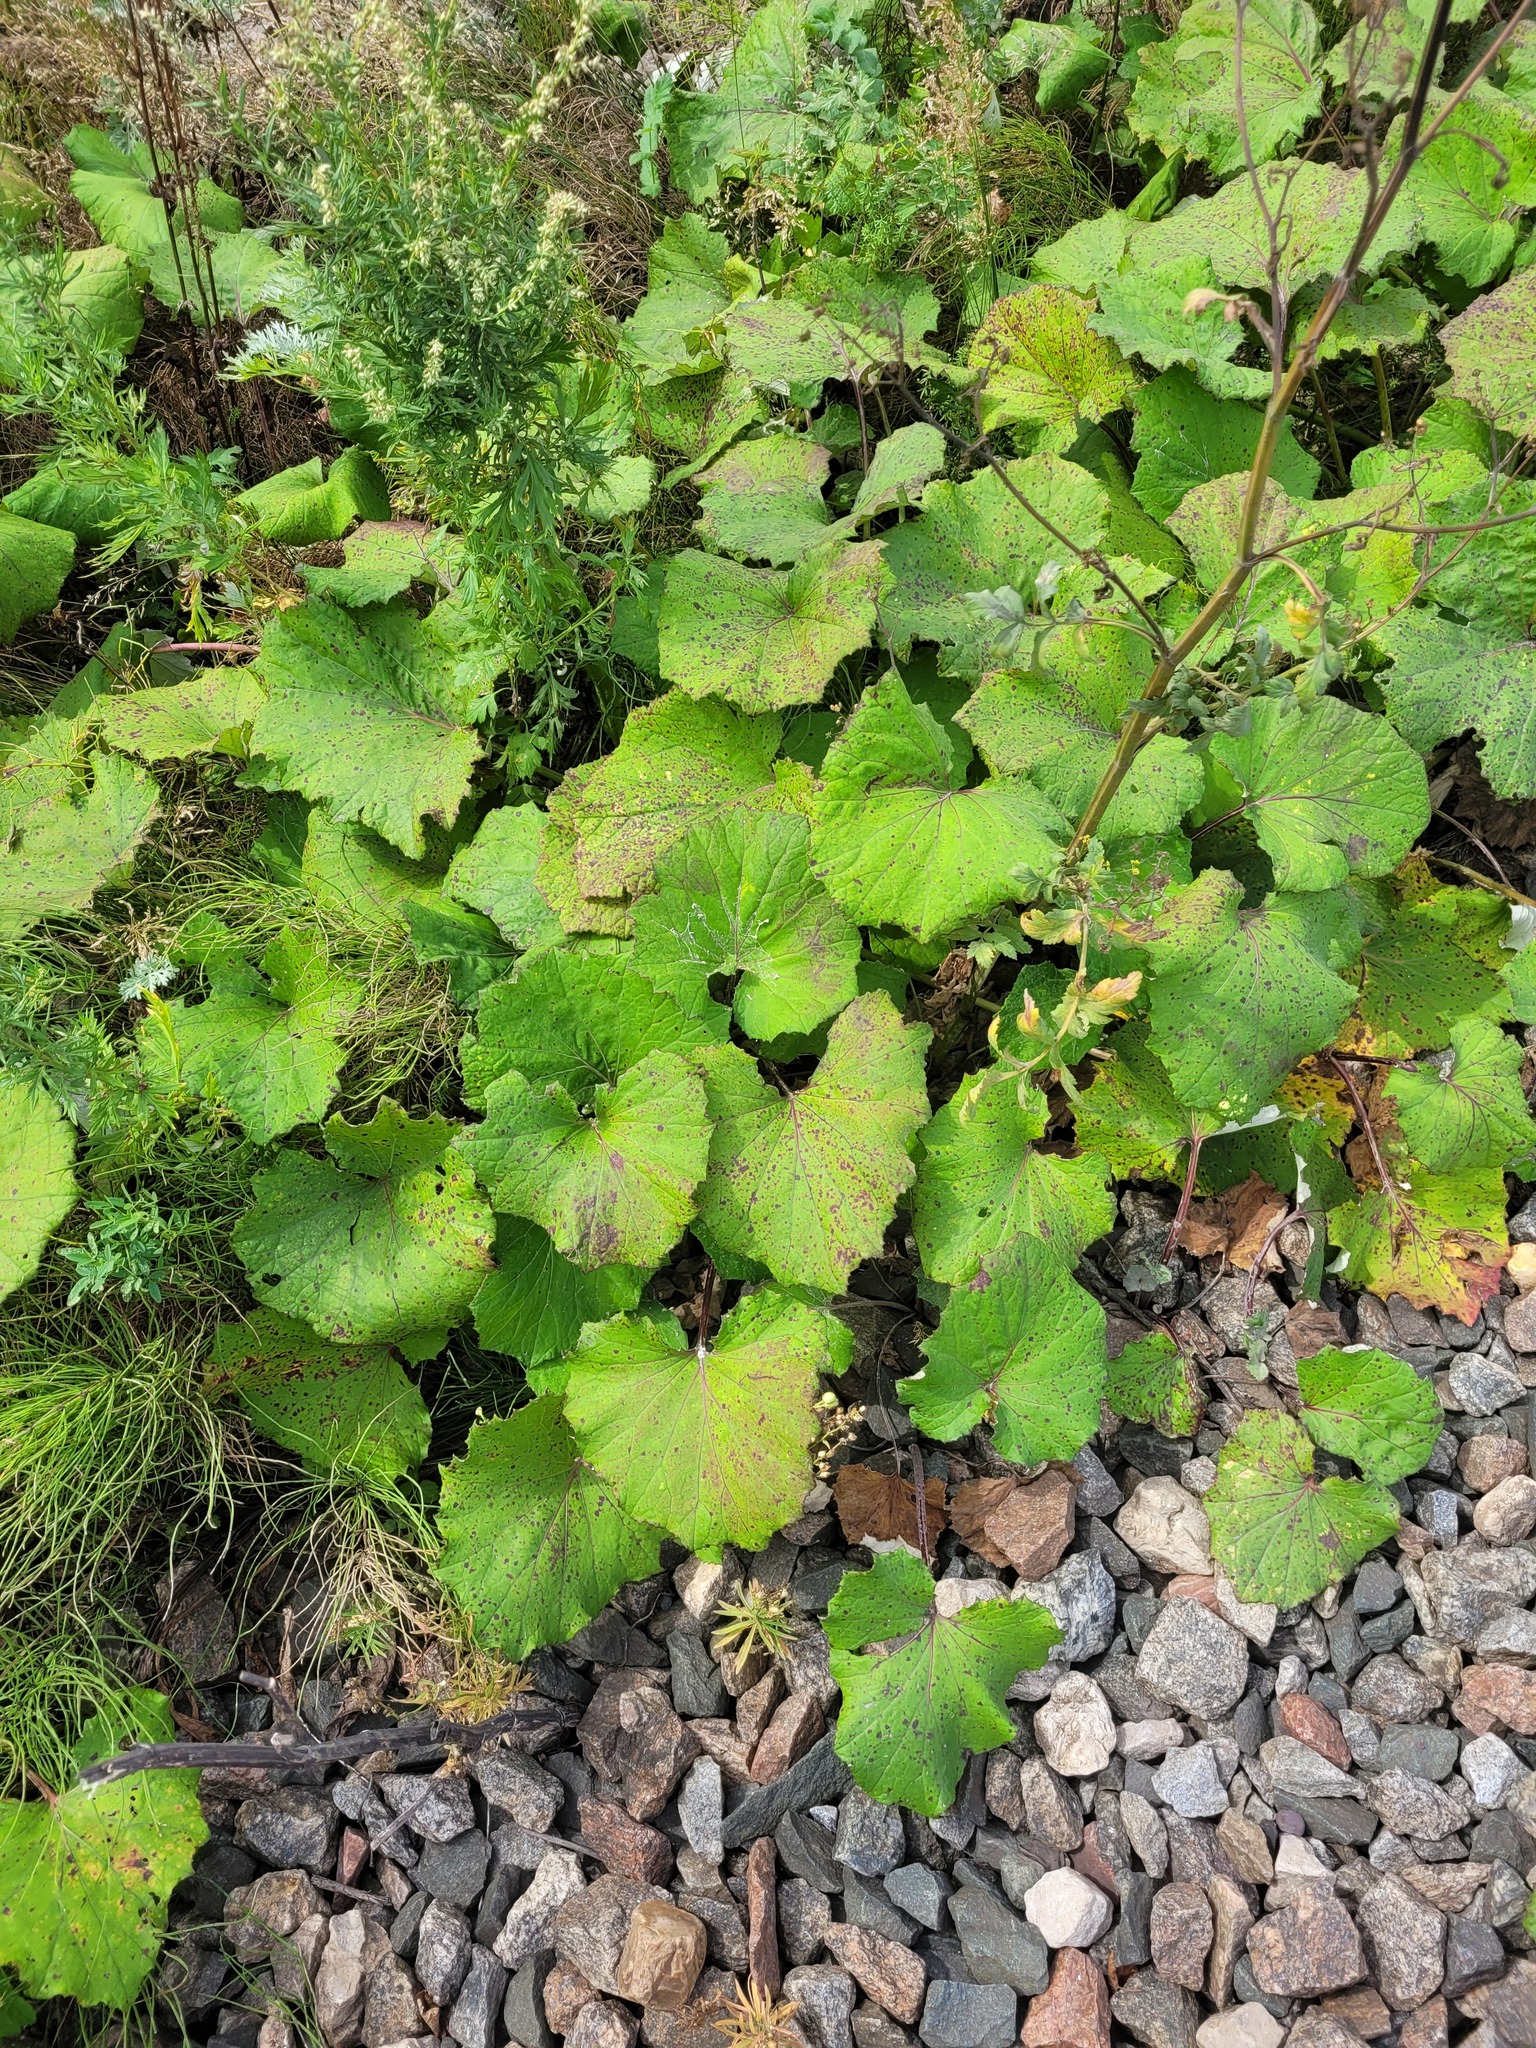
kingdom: Plantae
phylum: Tracheophyta
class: Magnoliopsida
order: Asterales
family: Asteraceae
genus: Tussilago
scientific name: Tussilago farfara
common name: Coltsfoot
